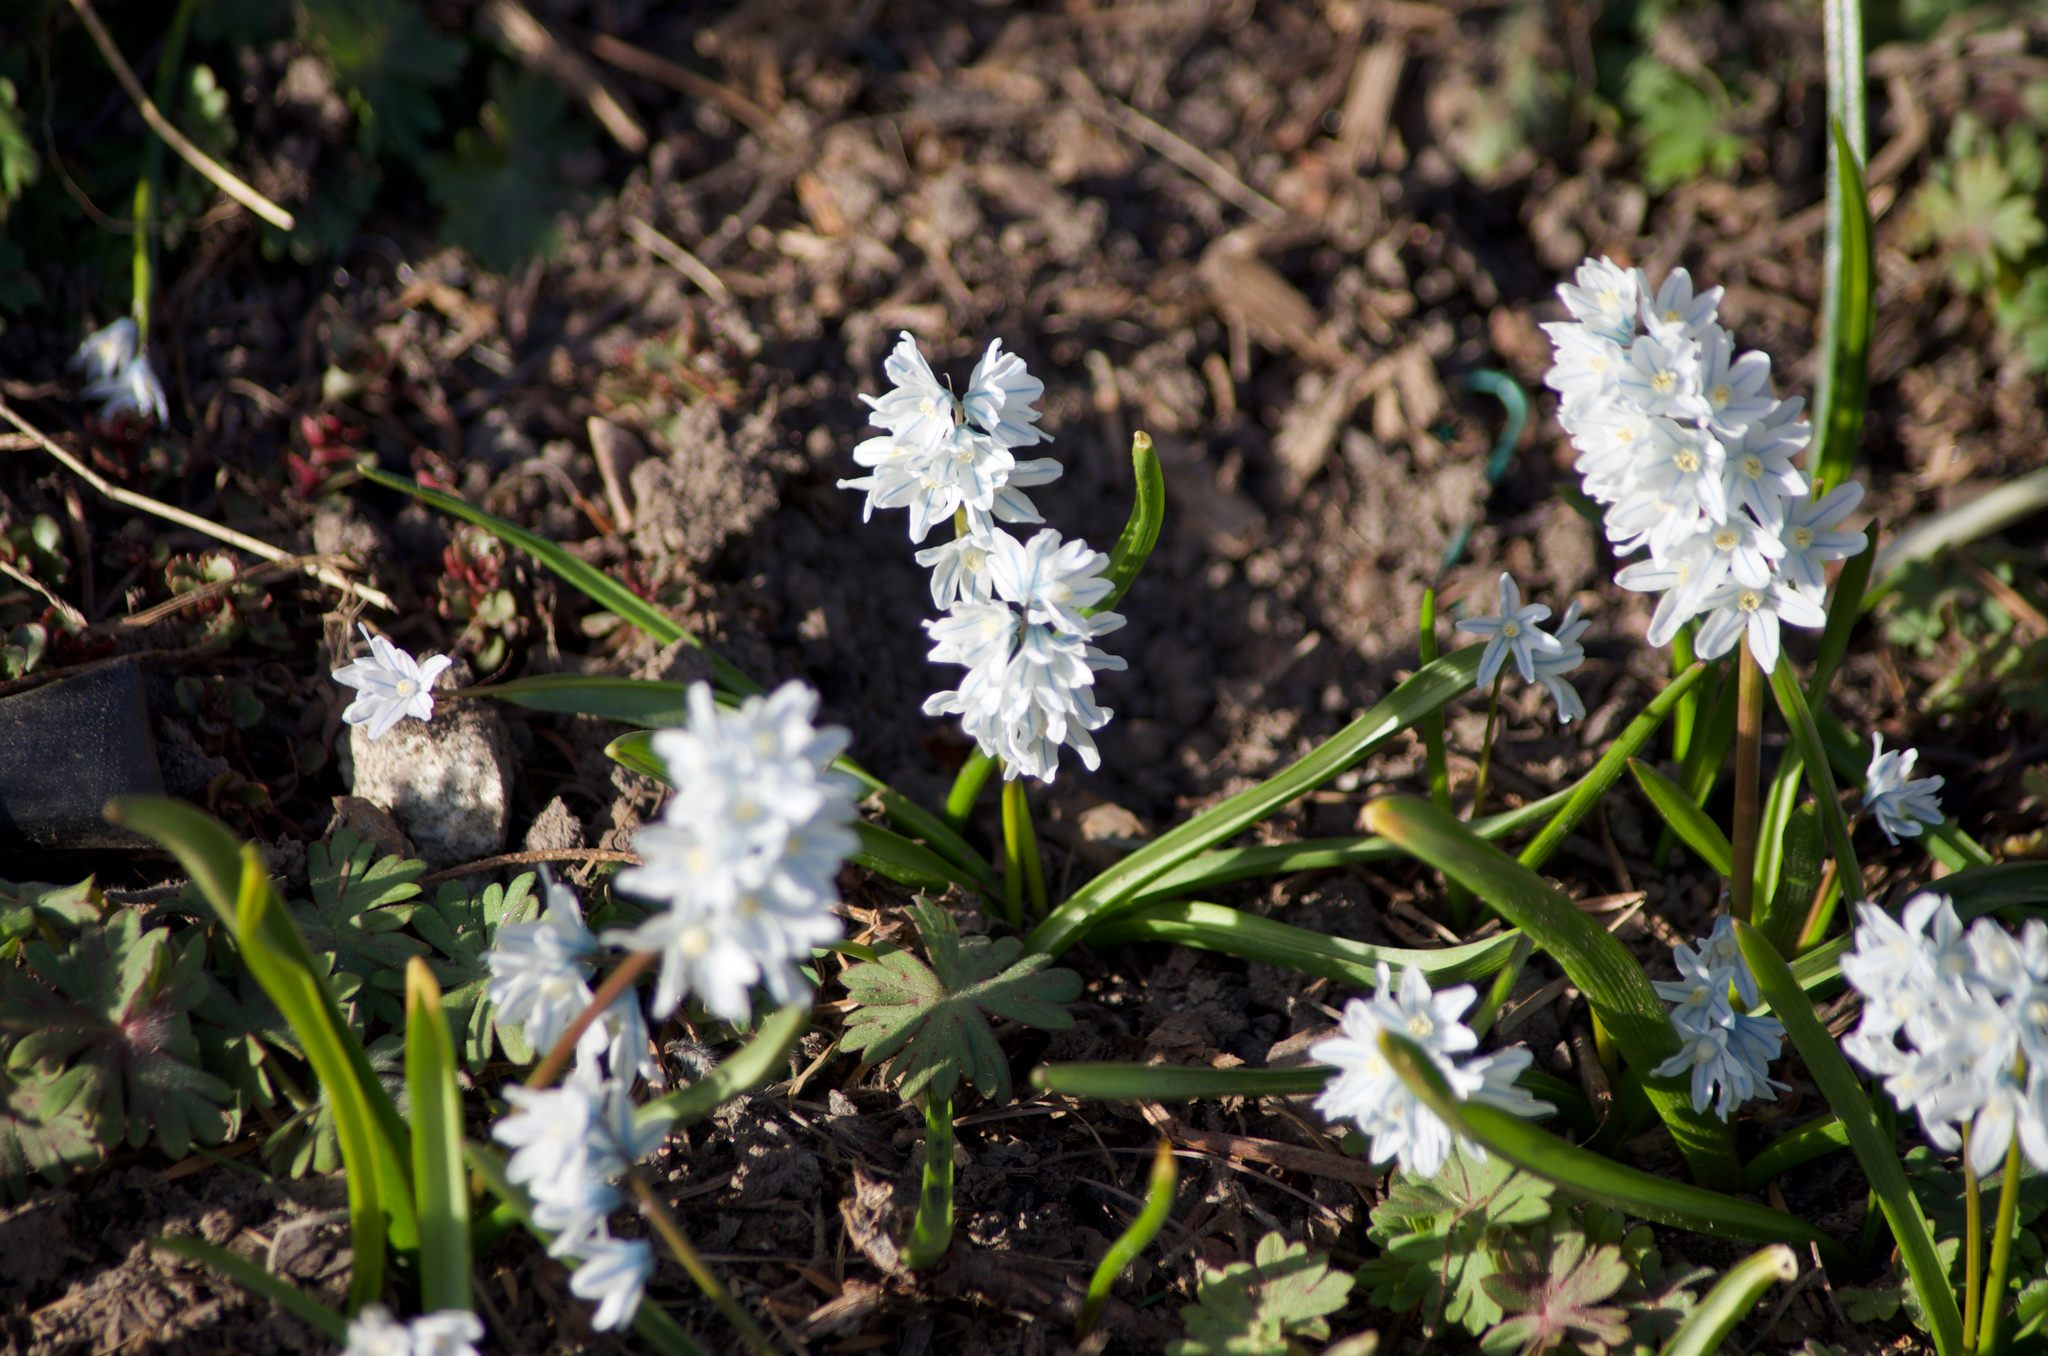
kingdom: Plantae
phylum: Tracheophyta
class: Liliopsida
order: Asparagales
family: Asparagaceae
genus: Puschkinia
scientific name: Puschkinia scilloides
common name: Striped squill
